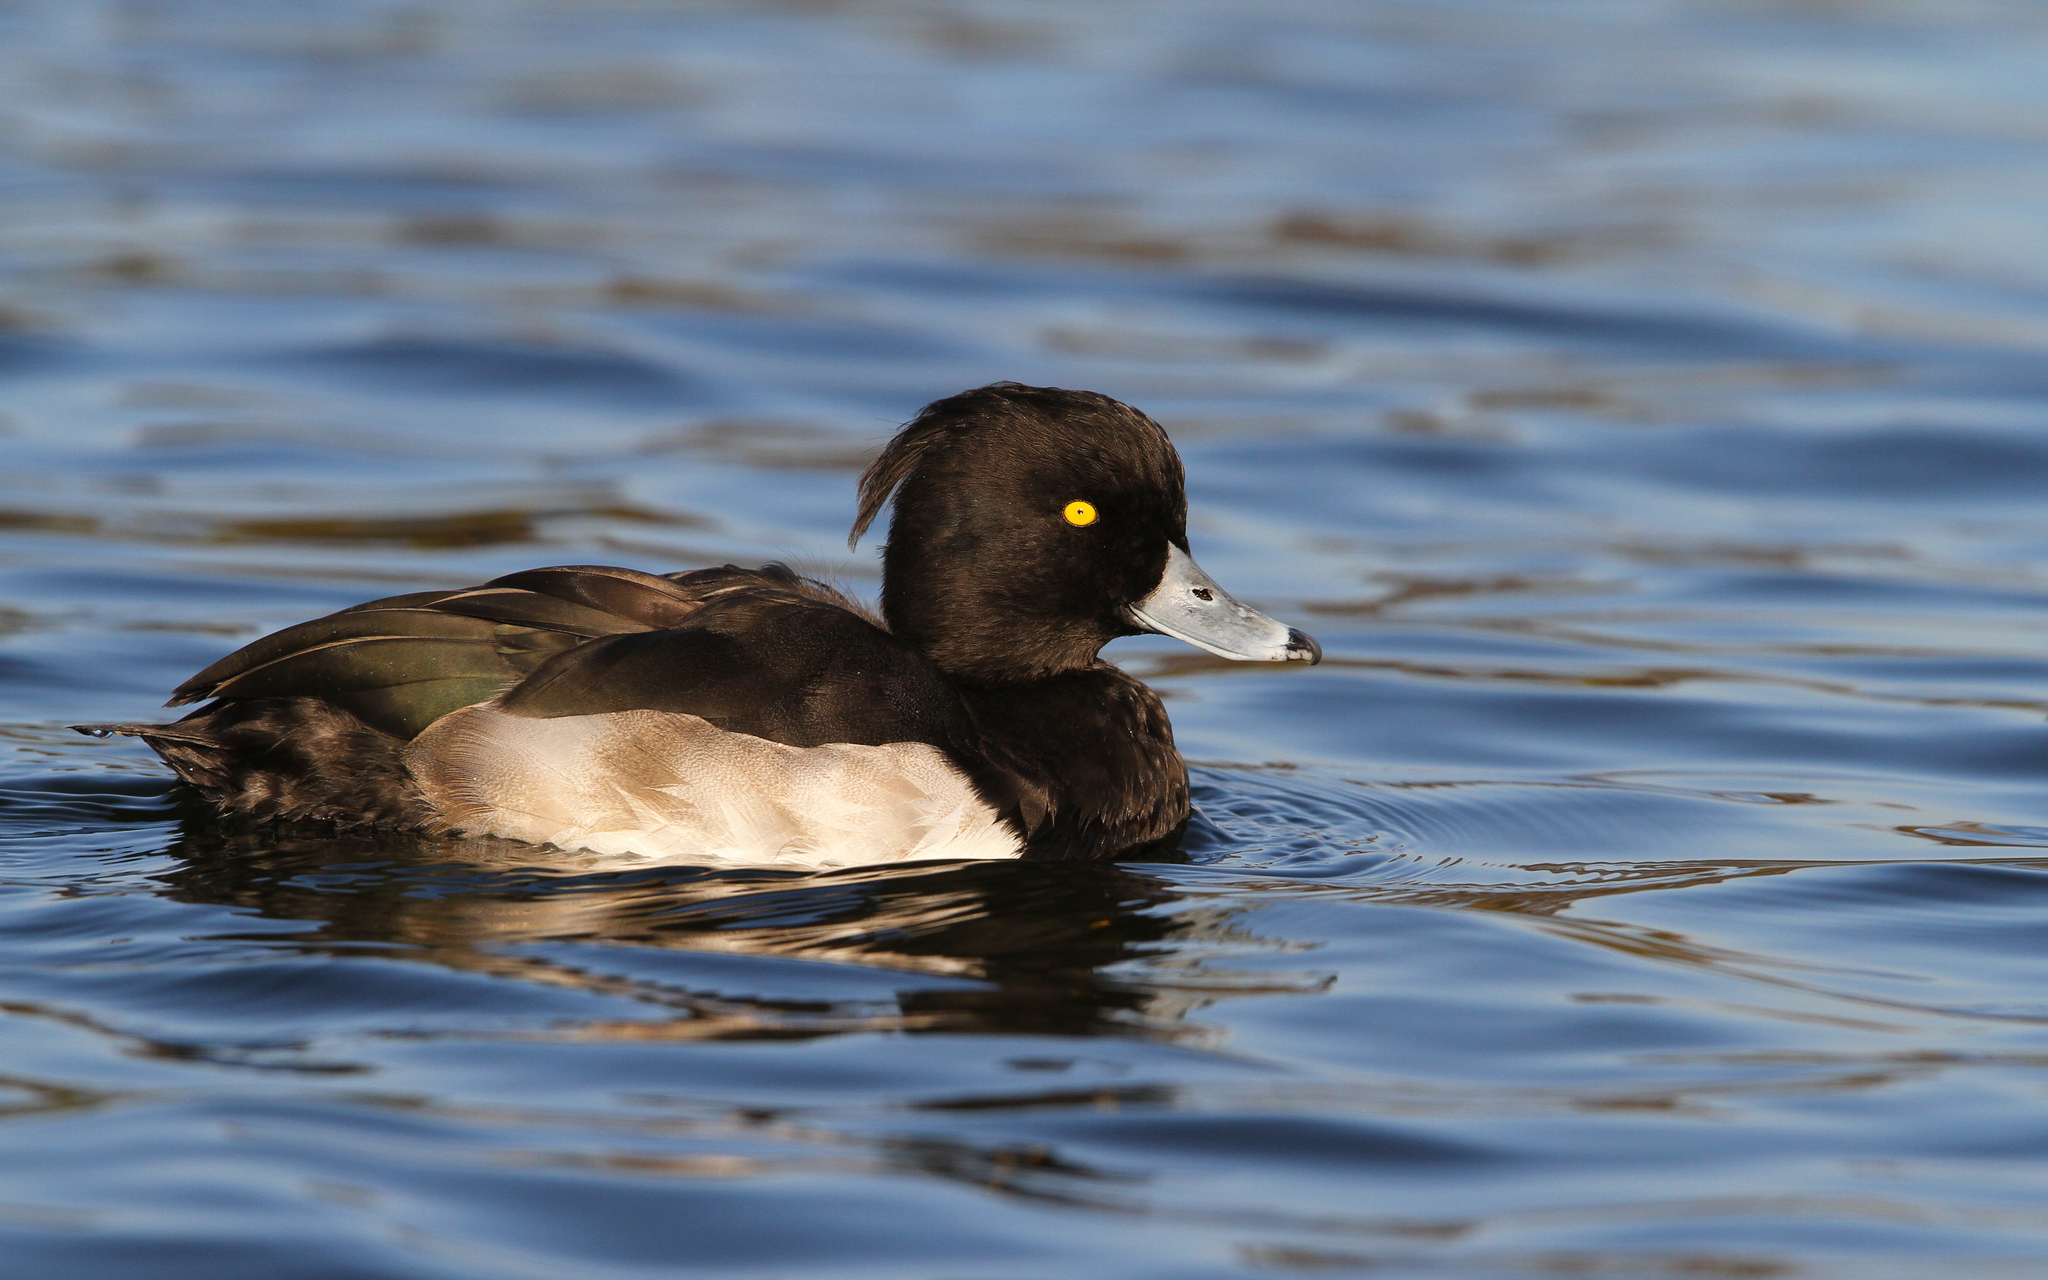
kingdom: Animalia
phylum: Chordata
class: Aves
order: Anseriformes
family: Anatidae
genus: Aythya
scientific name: Aythya fuligula
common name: Tufted duck
